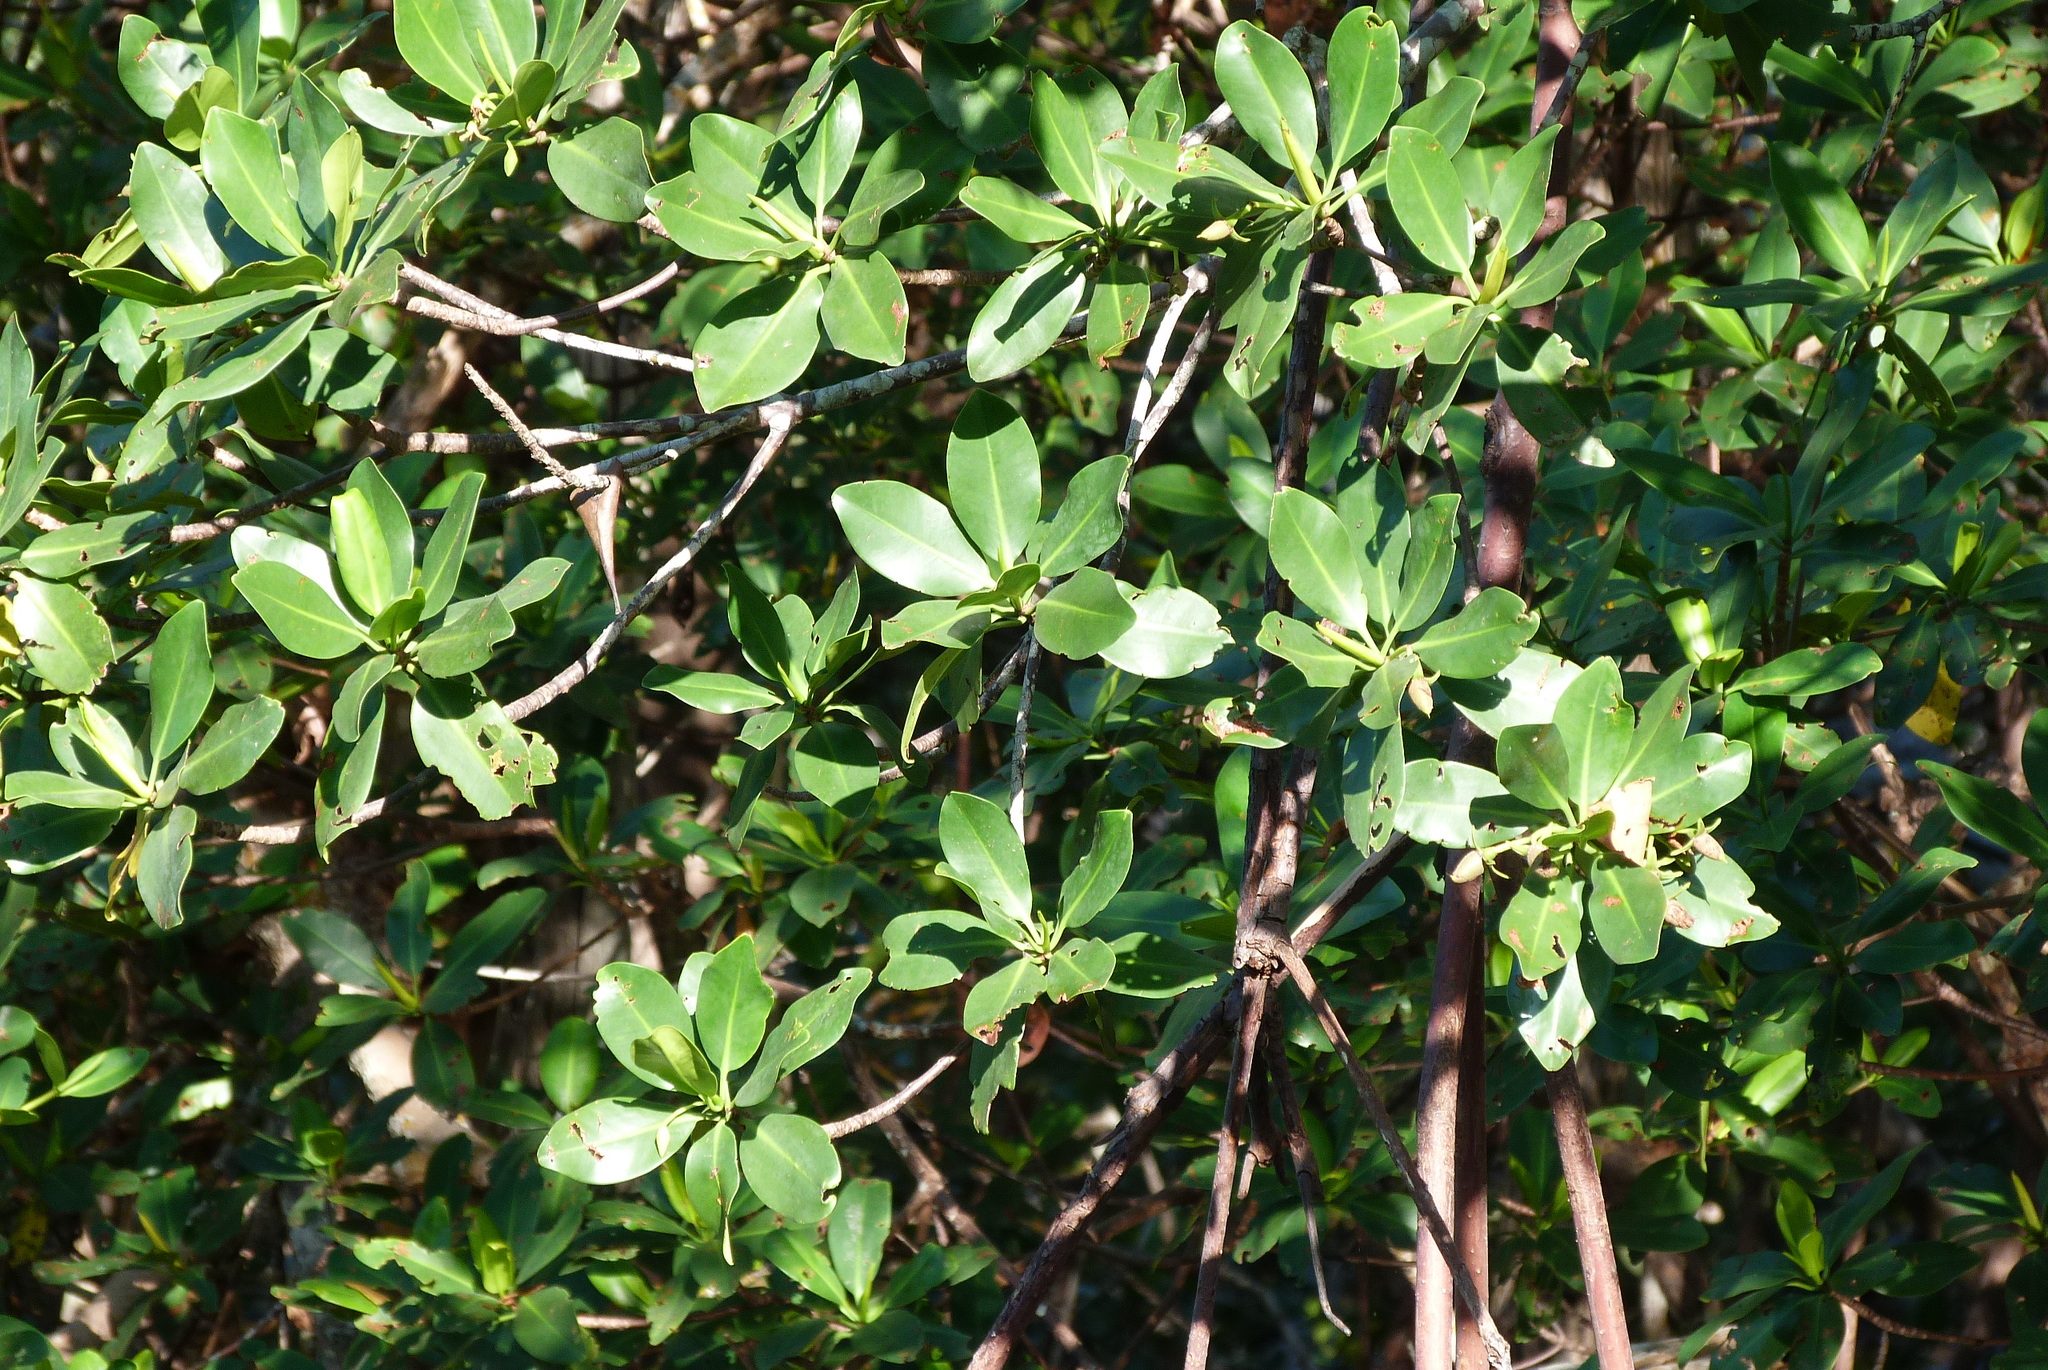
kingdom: Plantae
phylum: Tracheophyta
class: Magnoliopsida
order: Malpighiales
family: Rhizophoraceae
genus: Rhizophora
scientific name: Rhizophora mangle
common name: Red mangrove
